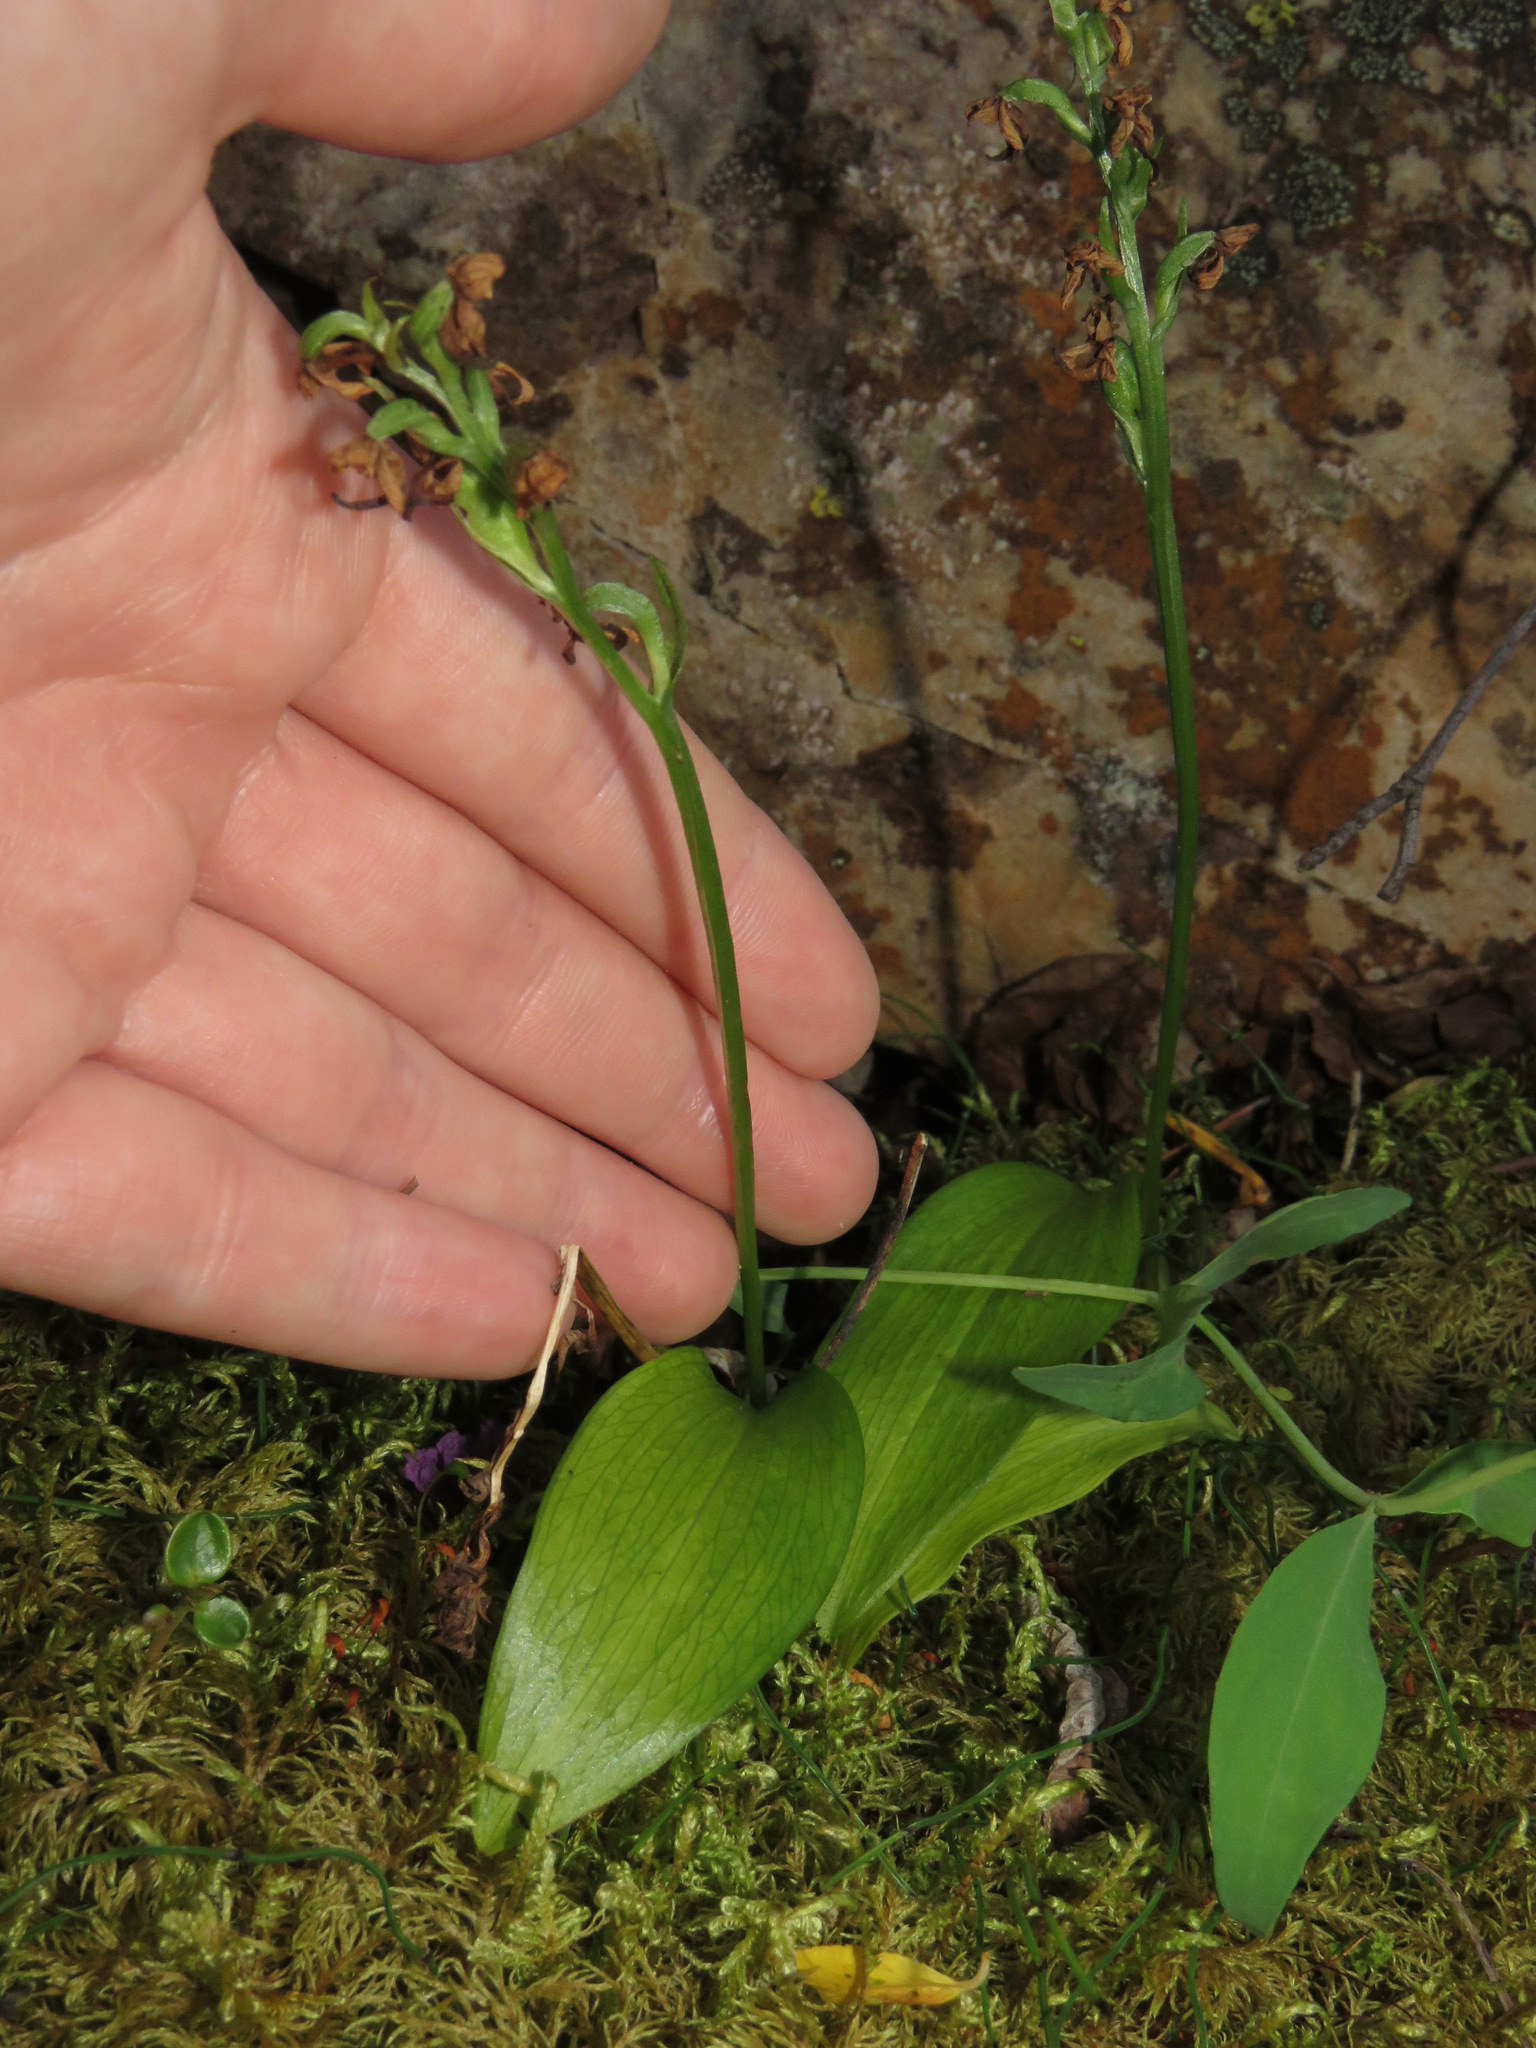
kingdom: Plantae
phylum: Tracheophyta
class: Liliopsida
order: Asparagales
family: Orchidaceae
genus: Platanthera
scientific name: Platanthera obtusata
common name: Blunt bog orchid
